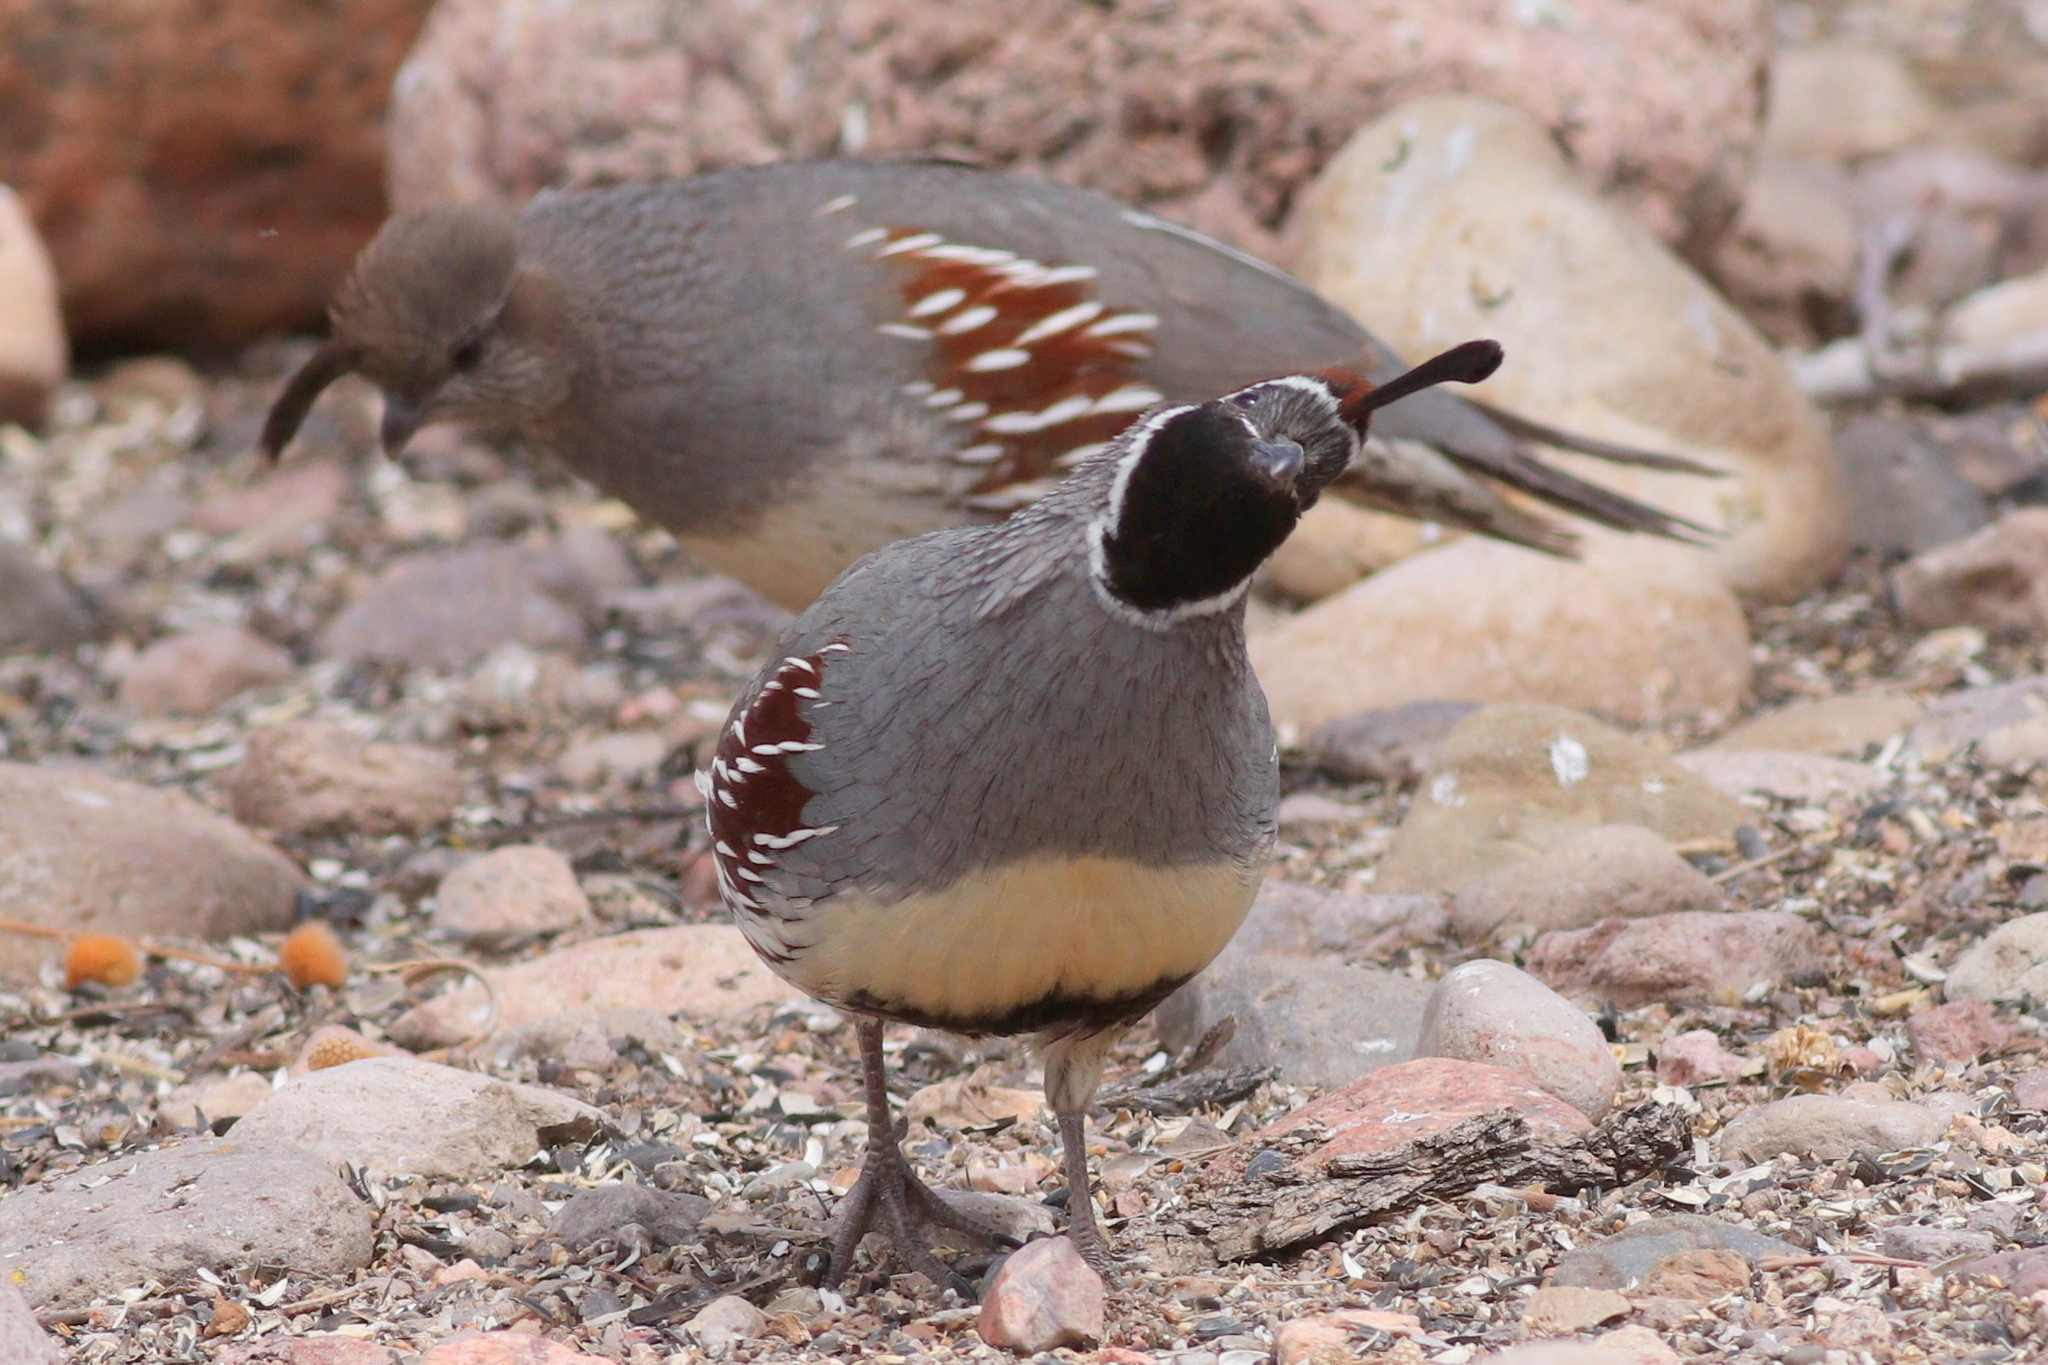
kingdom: Animalia
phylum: Chordata
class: Aves
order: Galliformes
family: Odontophoridae
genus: Callipepla
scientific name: Callipepla gambelii
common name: Gambel's quail
